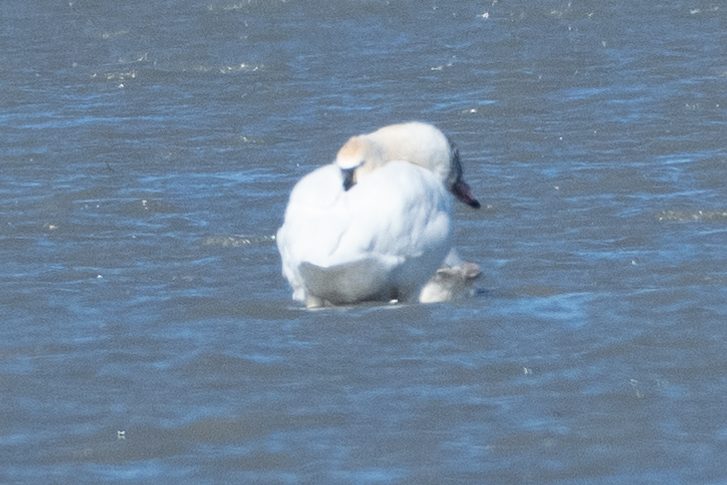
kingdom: Animalia
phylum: Chordata
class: Aves
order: Anseriformes
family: Anatidae
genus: Cygnus
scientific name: Cygnus columbianus
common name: Tundra swan
